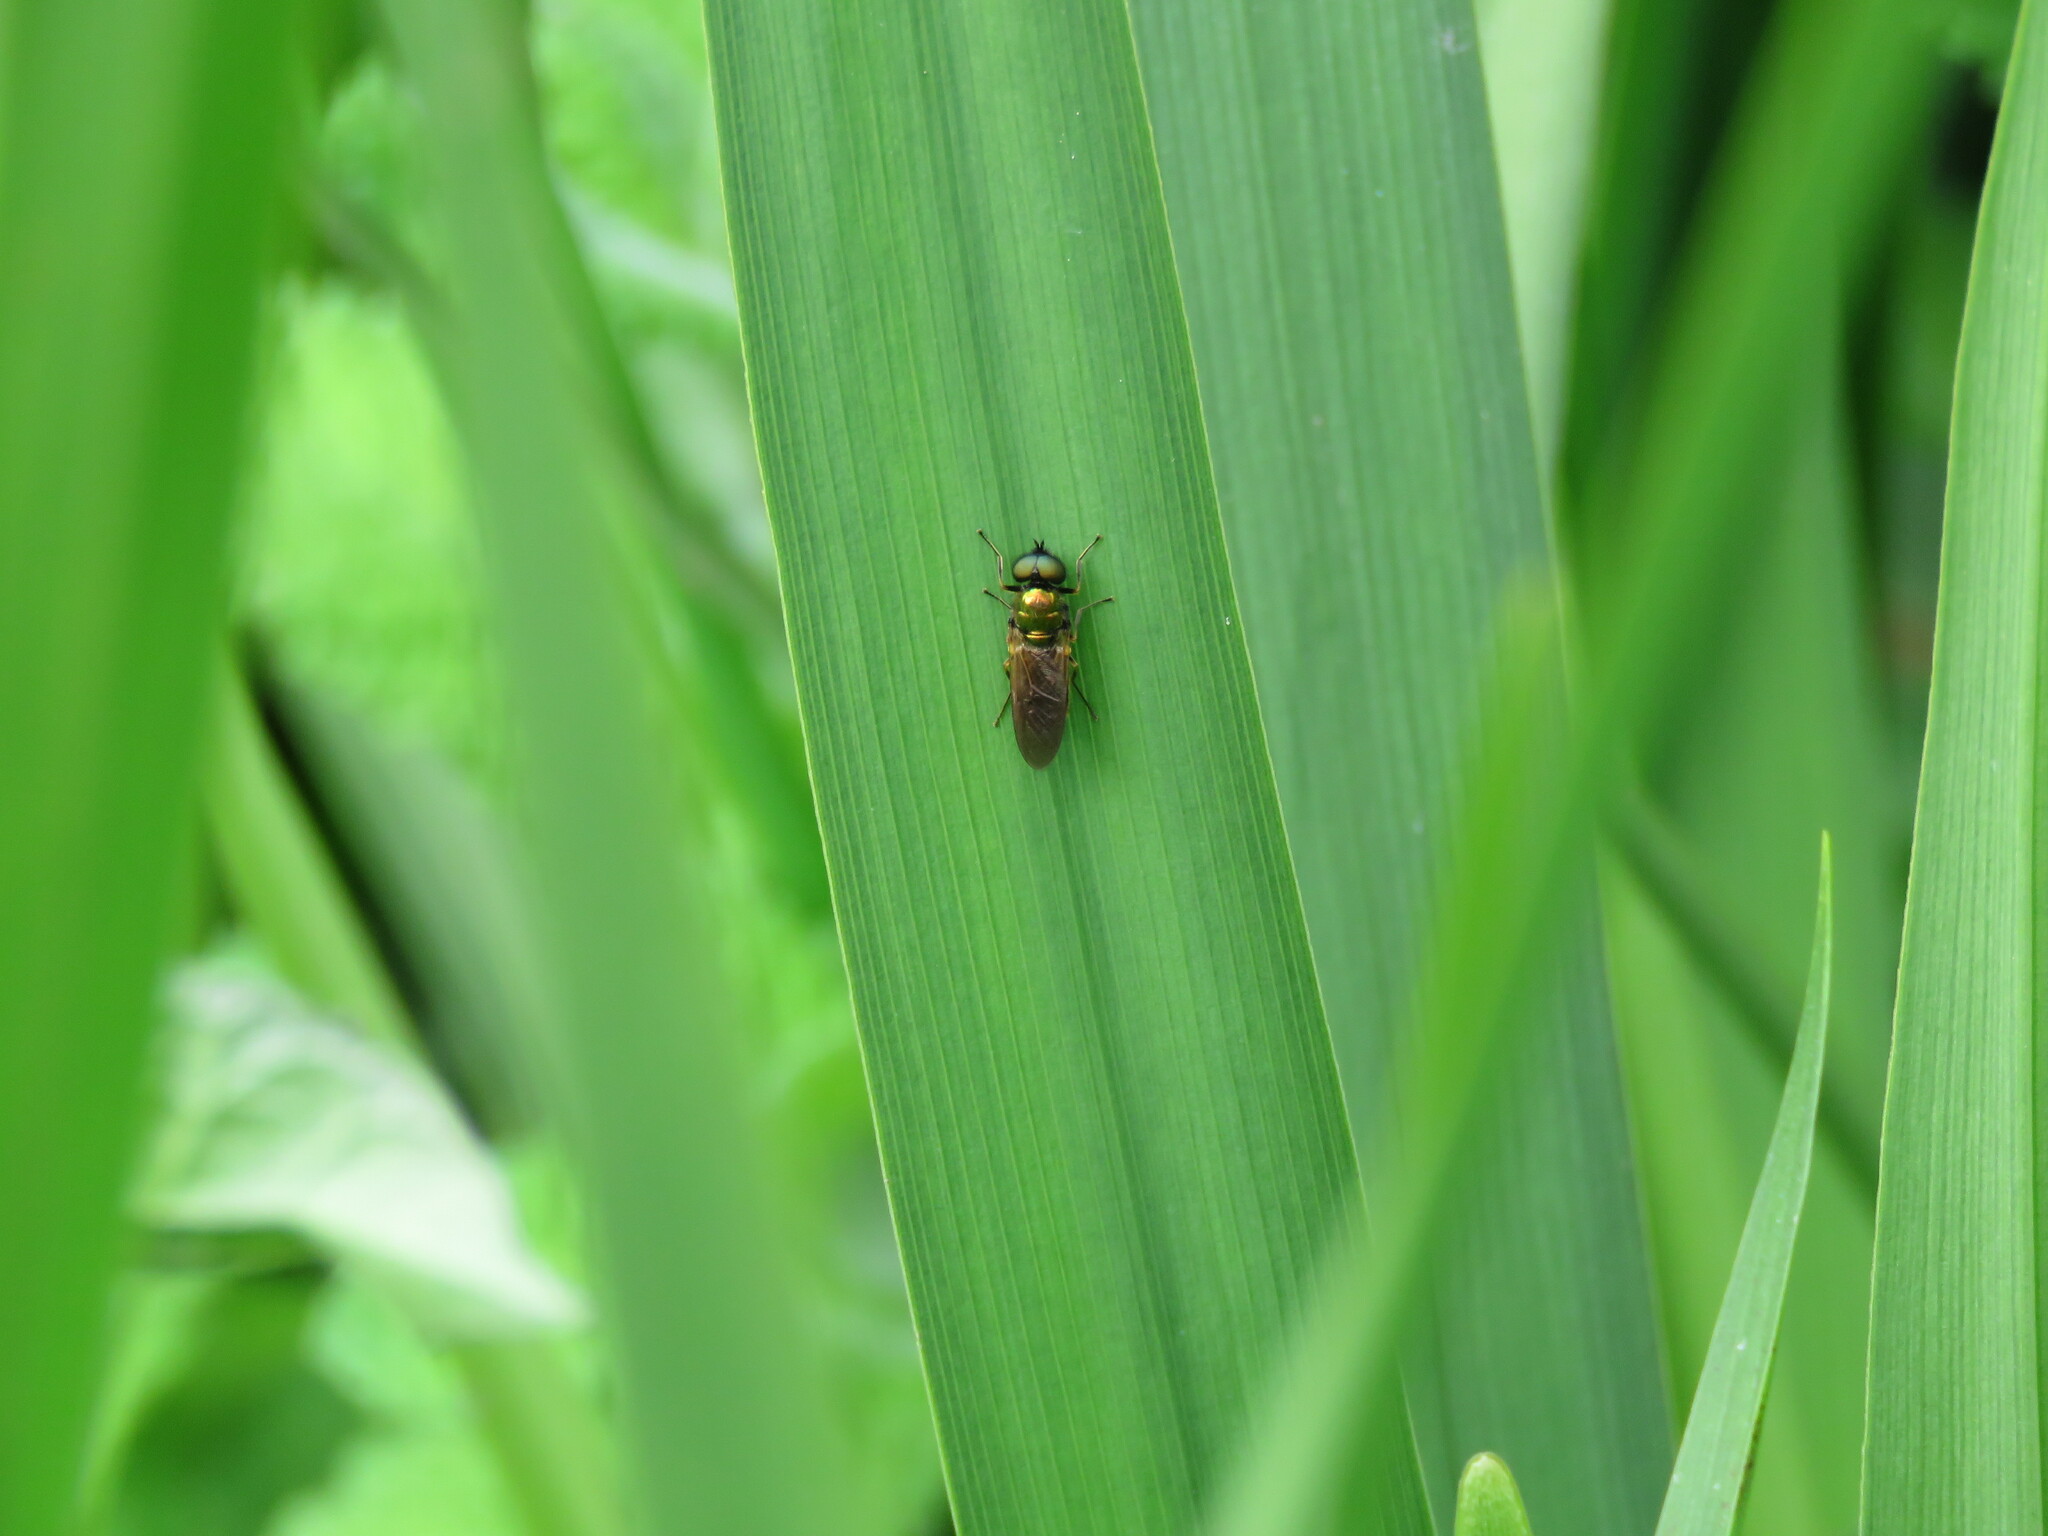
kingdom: Animalia
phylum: Arthropoda
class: Insecta
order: Diptera
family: Stratiomyidae
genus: Chloromyia
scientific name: Chloromyia formosa
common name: Soldier fly
